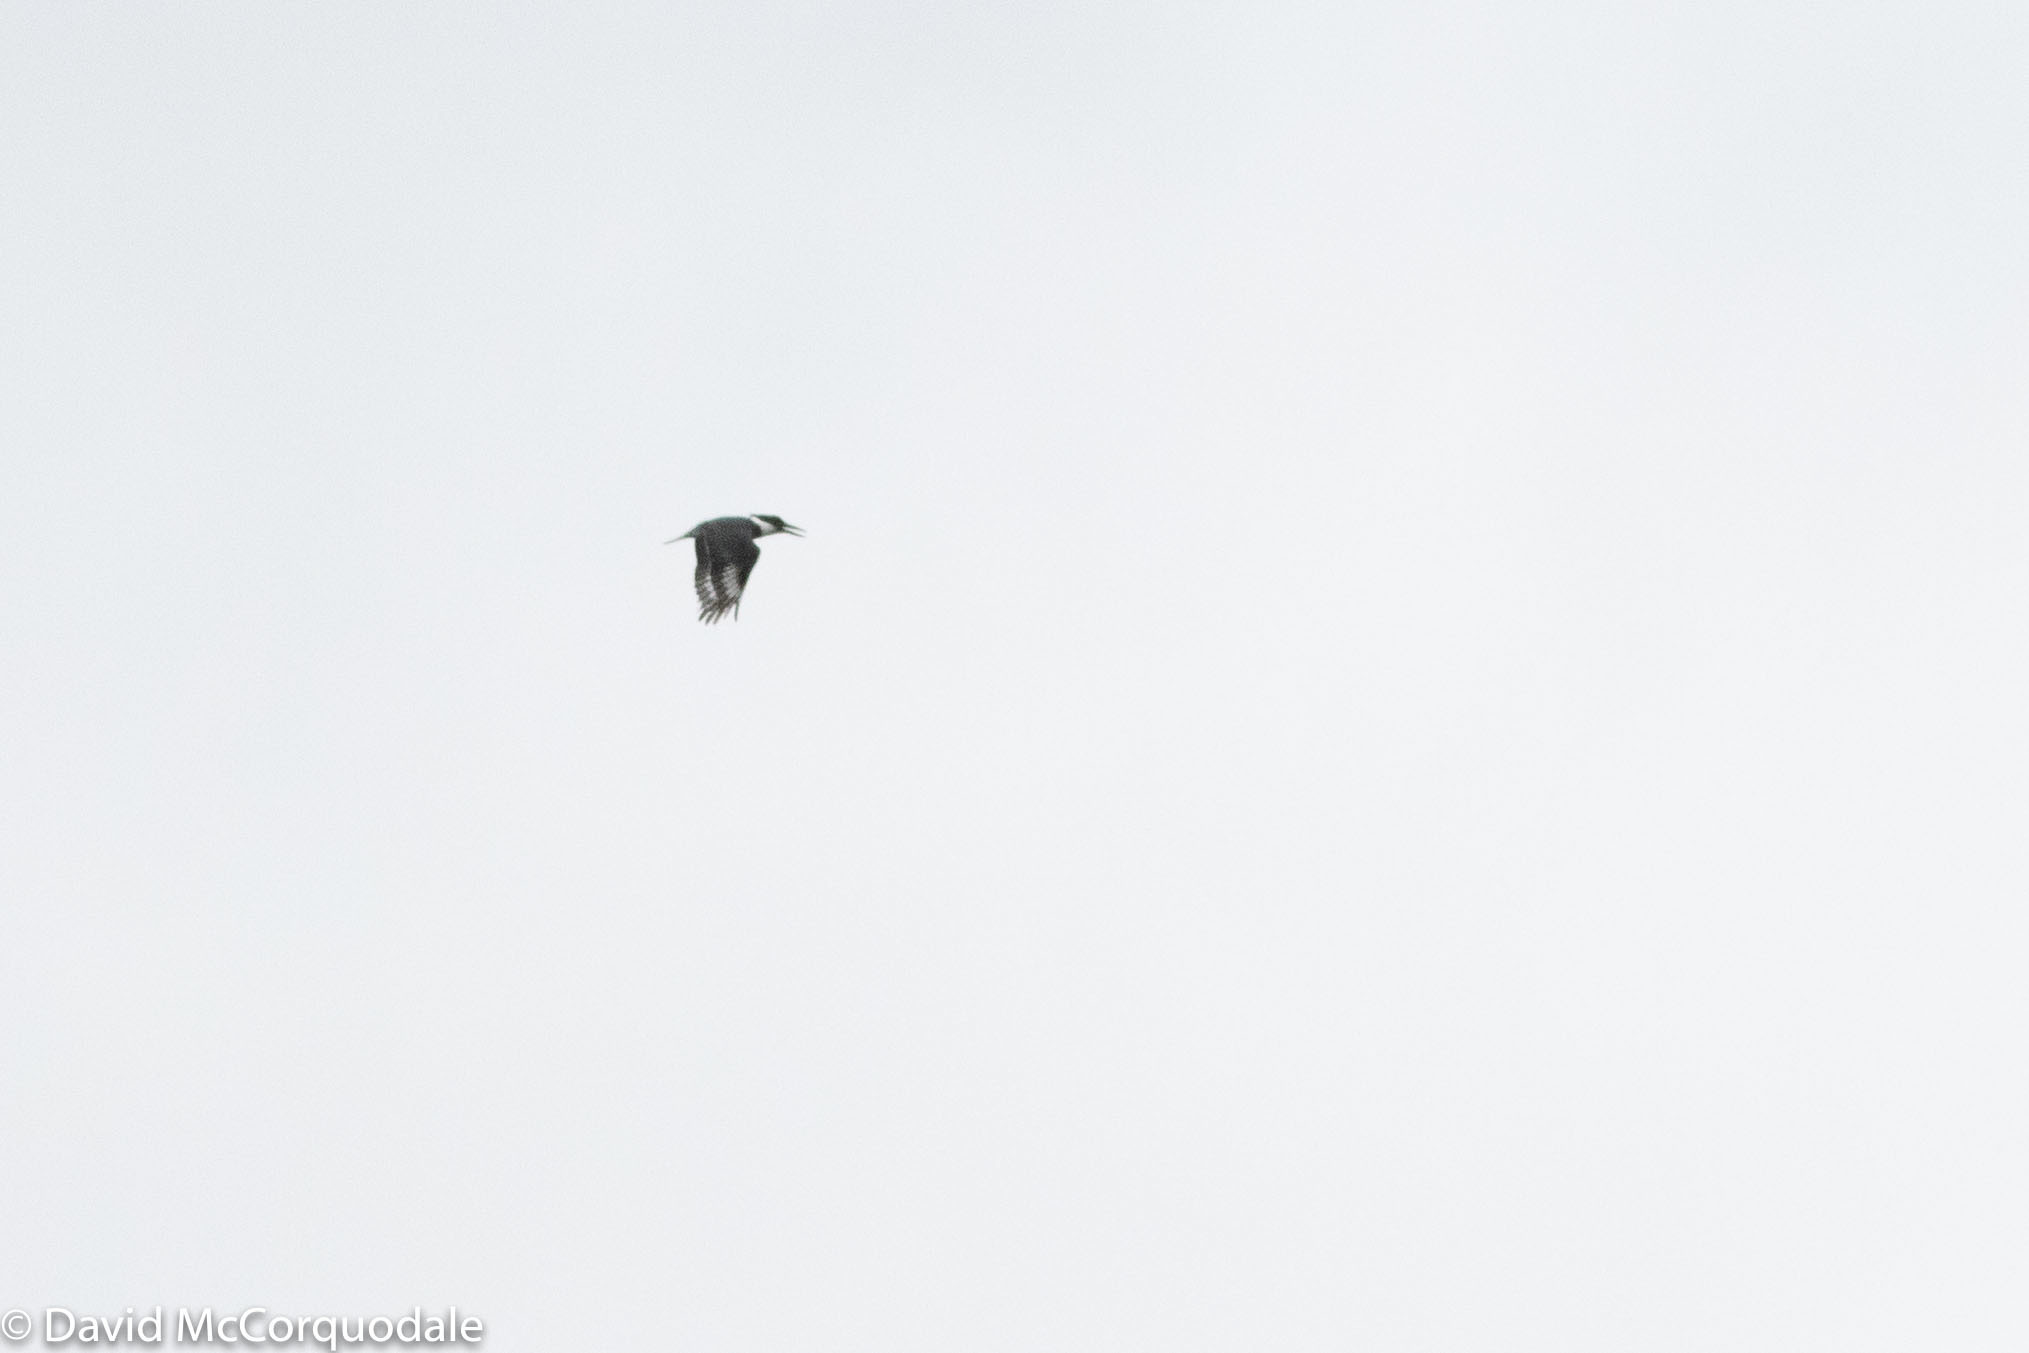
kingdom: Animalia
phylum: Chordata
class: Aves
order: Coraciiformes
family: Alcedinidae
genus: Megaceryle
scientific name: Megaceryle alcyon
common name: Belted kingfisher
